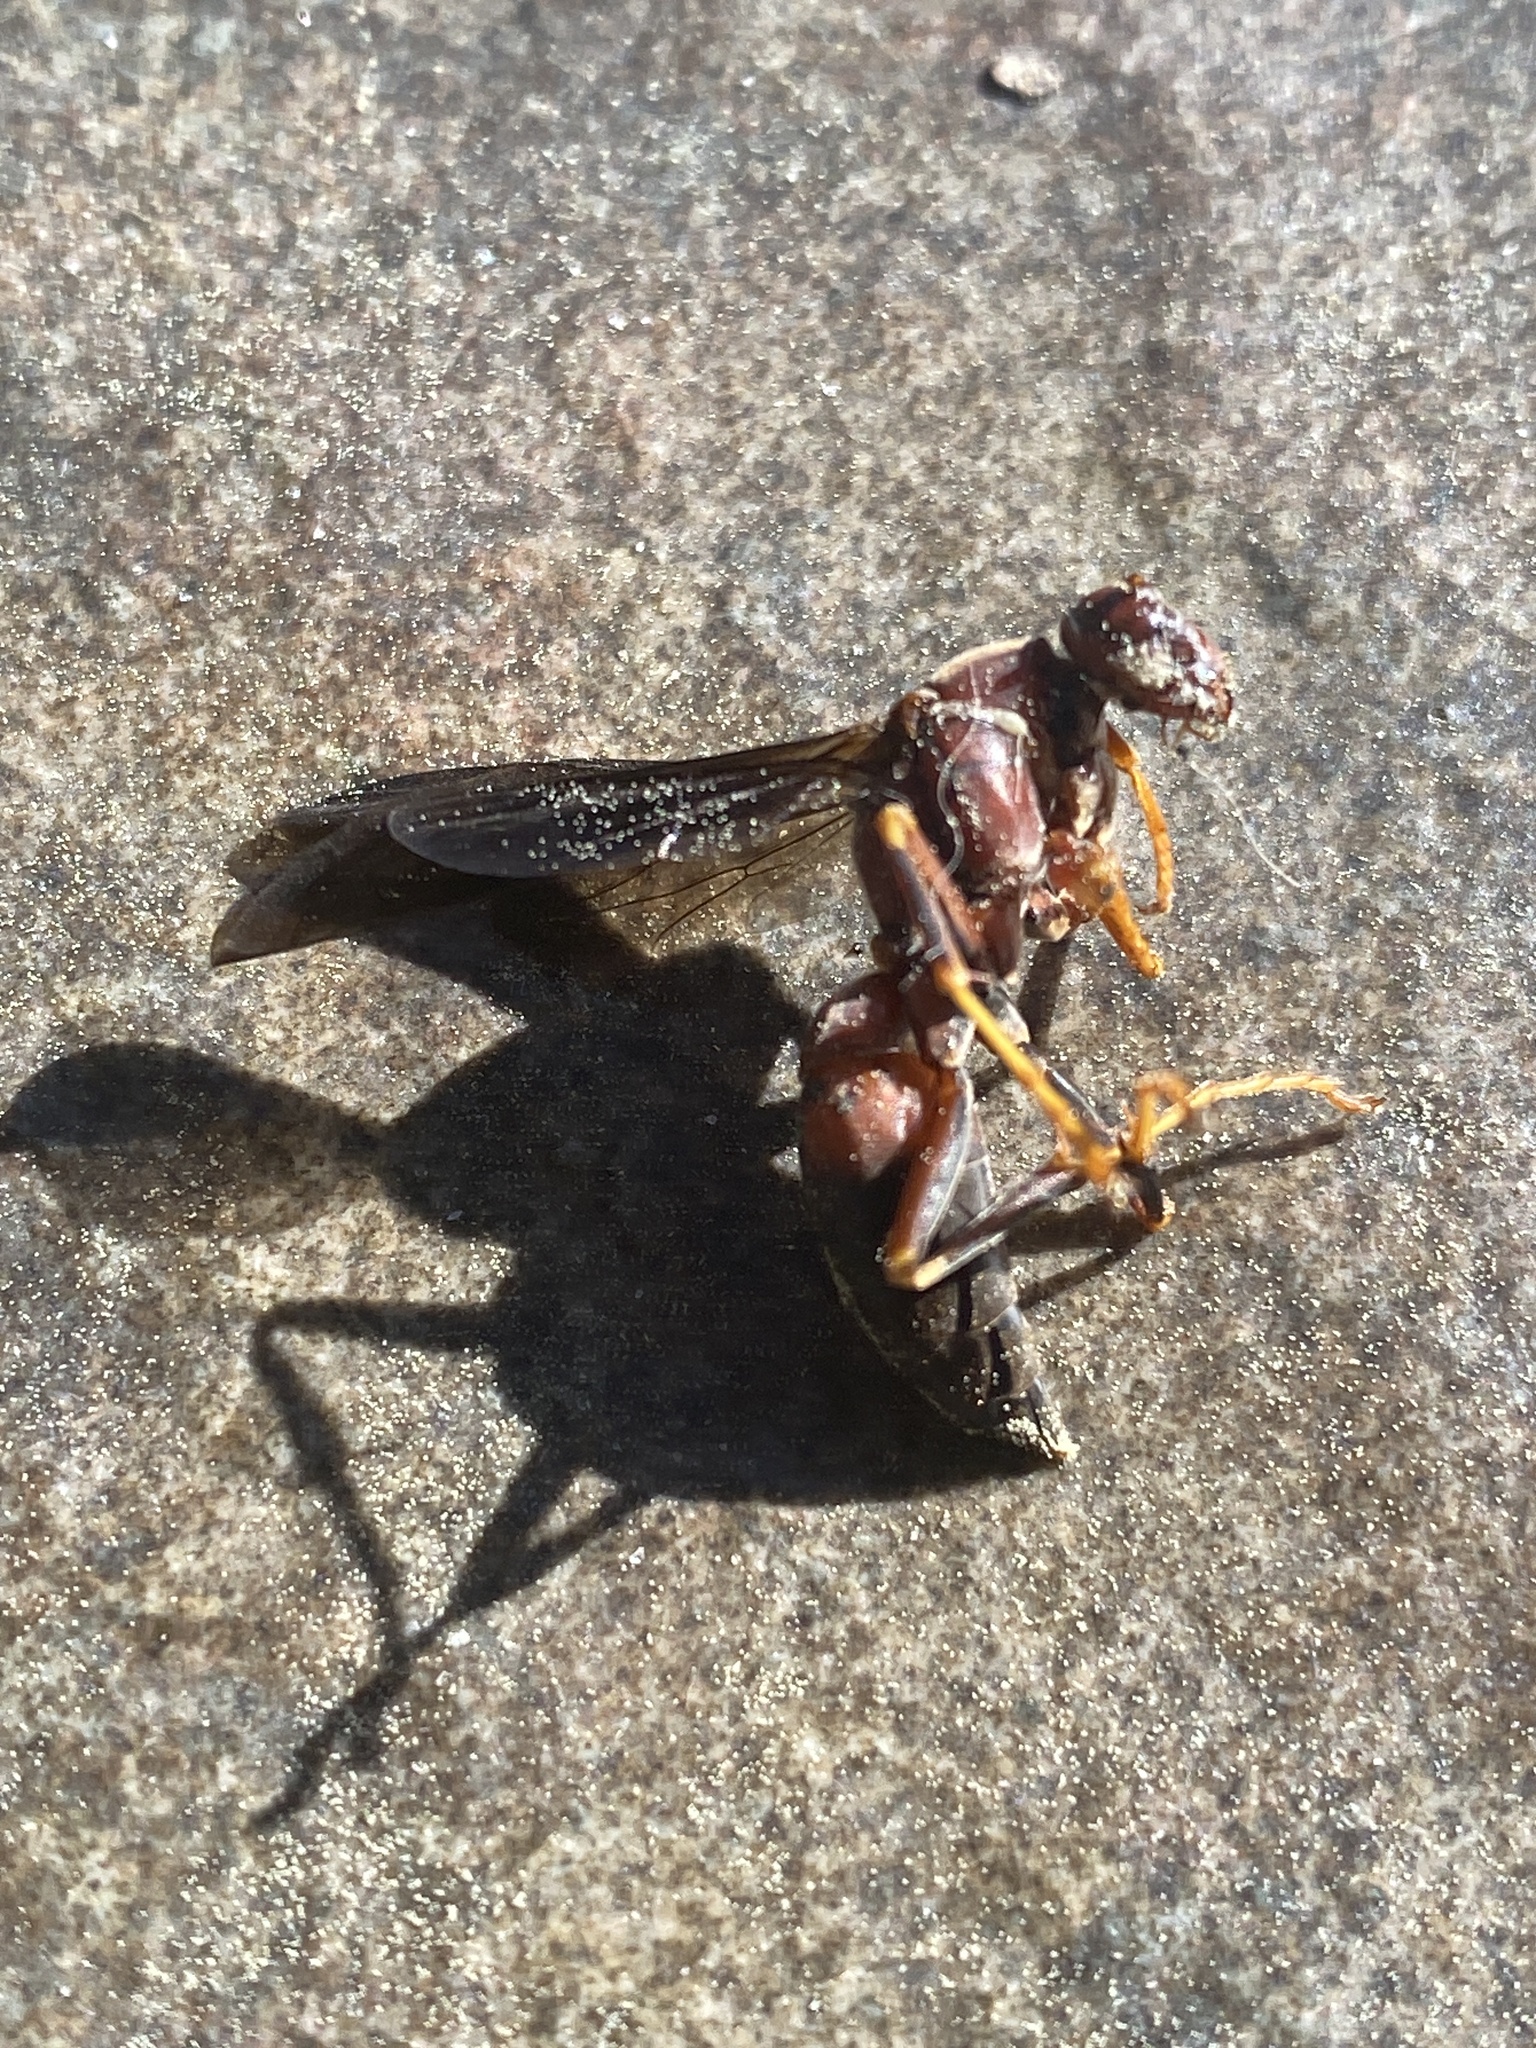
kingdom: Animalia
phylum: Arthropoda
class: Insecta
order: Hymenoptera
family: Eumenidae
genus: Polistes
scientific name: Polistes metricus
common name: Metric paper wasp
